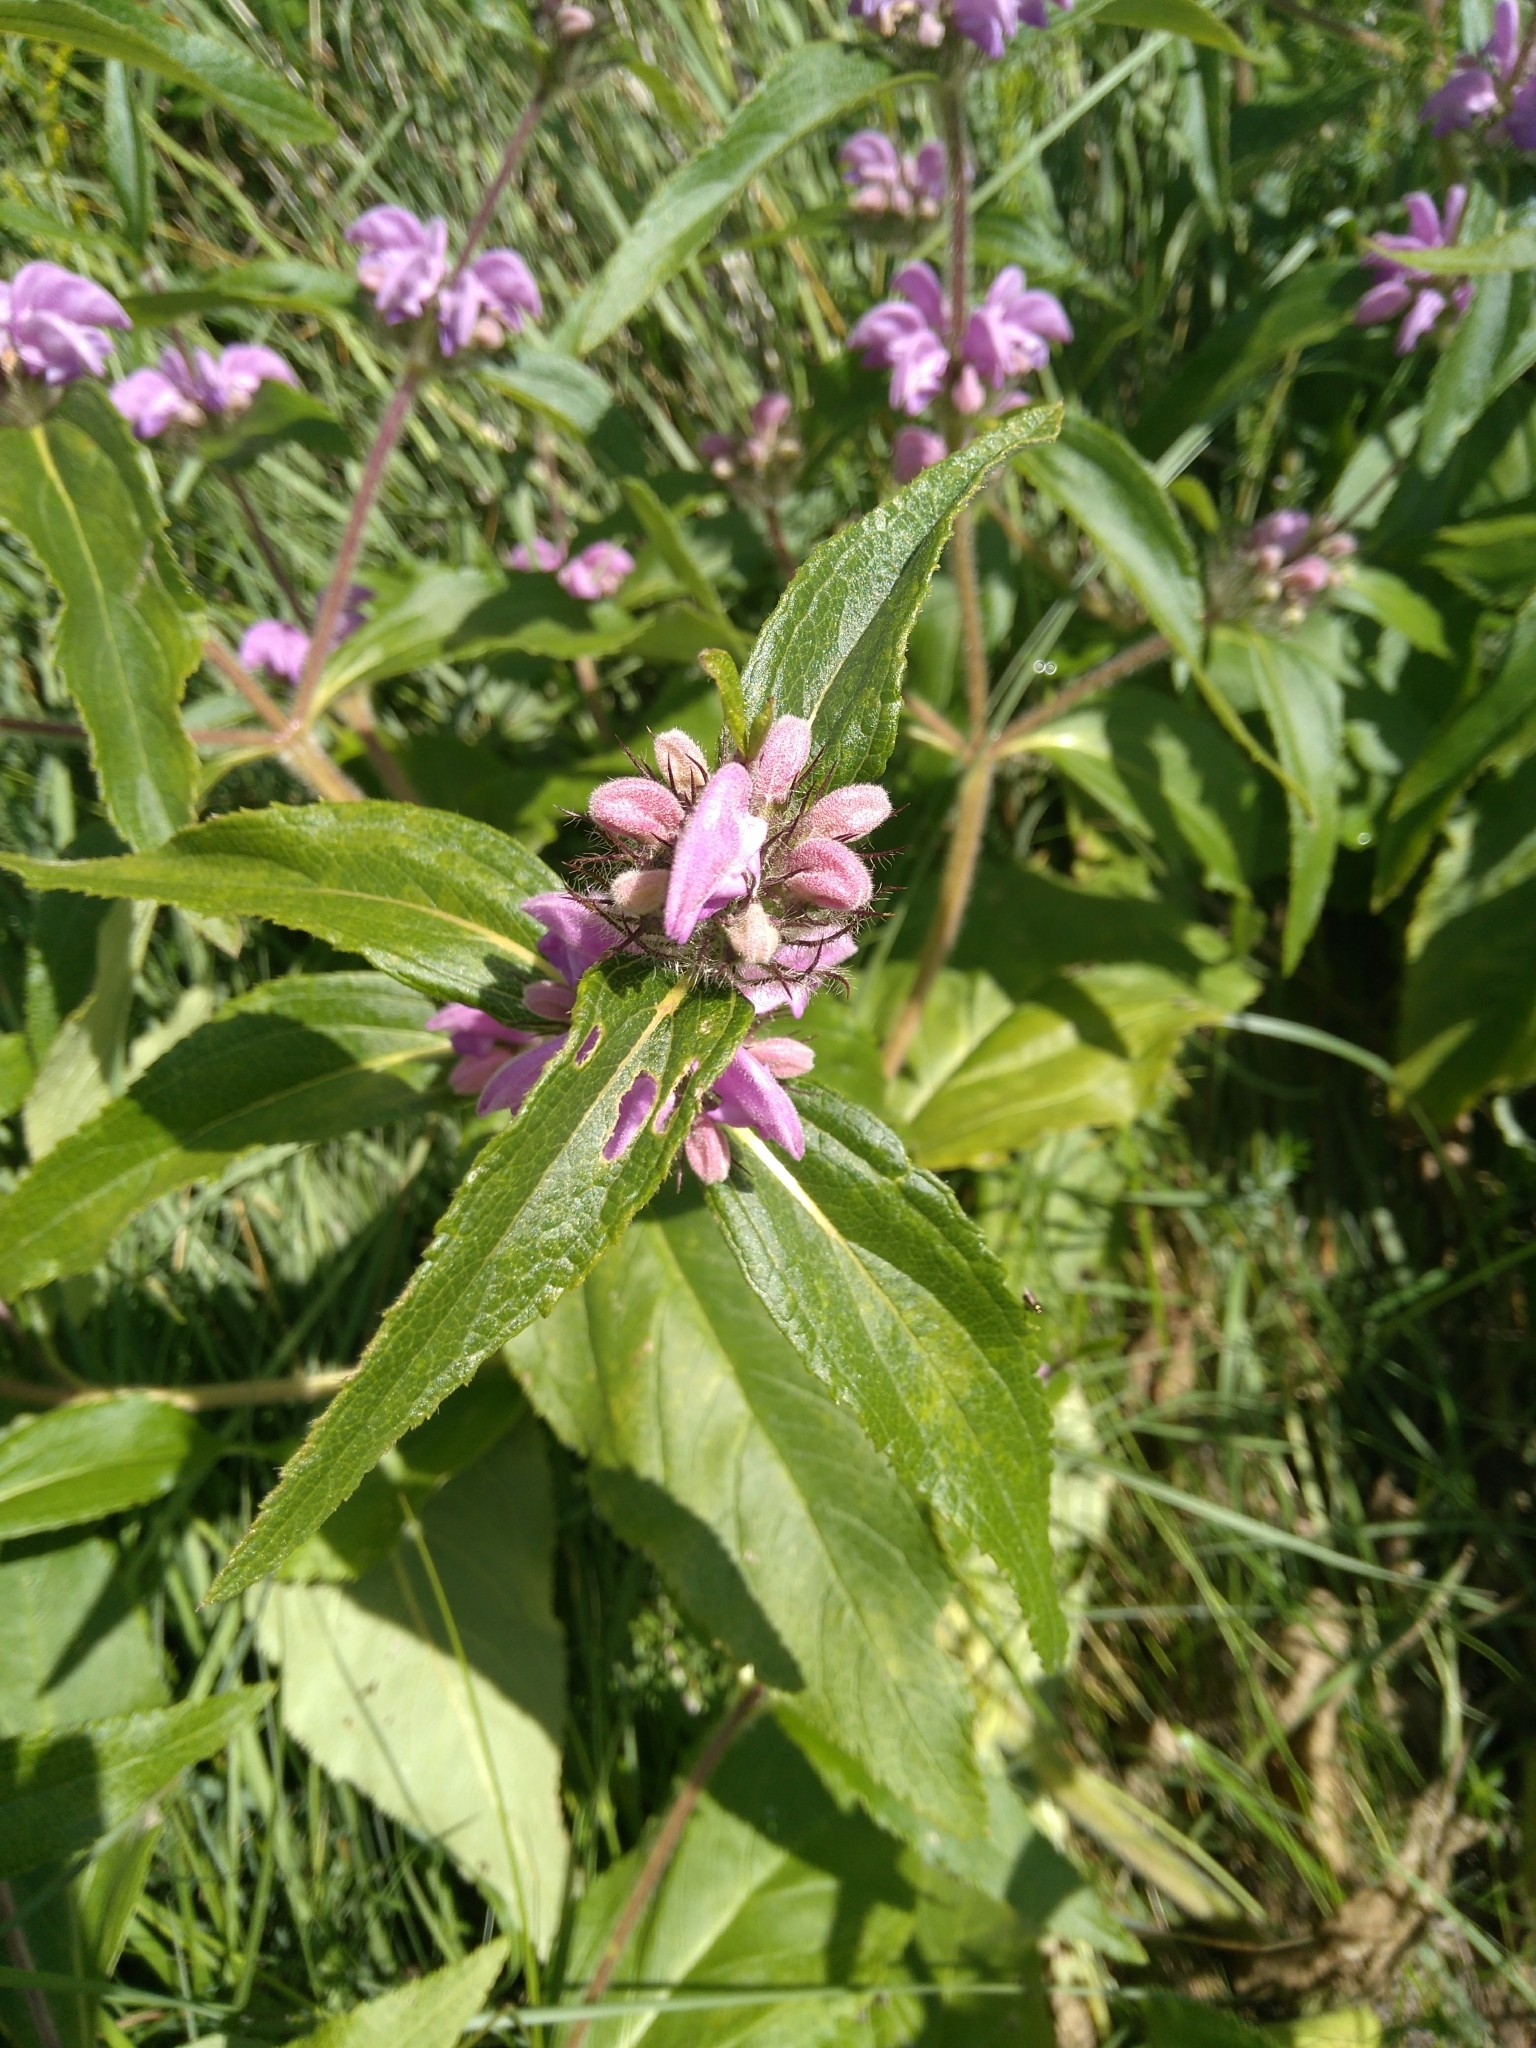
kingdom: Plantae
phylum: Tracheophyta
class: Magnoliopsida
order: Lamiales
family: Lamiaceae
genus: Phlomis
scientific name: Phlomis herba-venti
